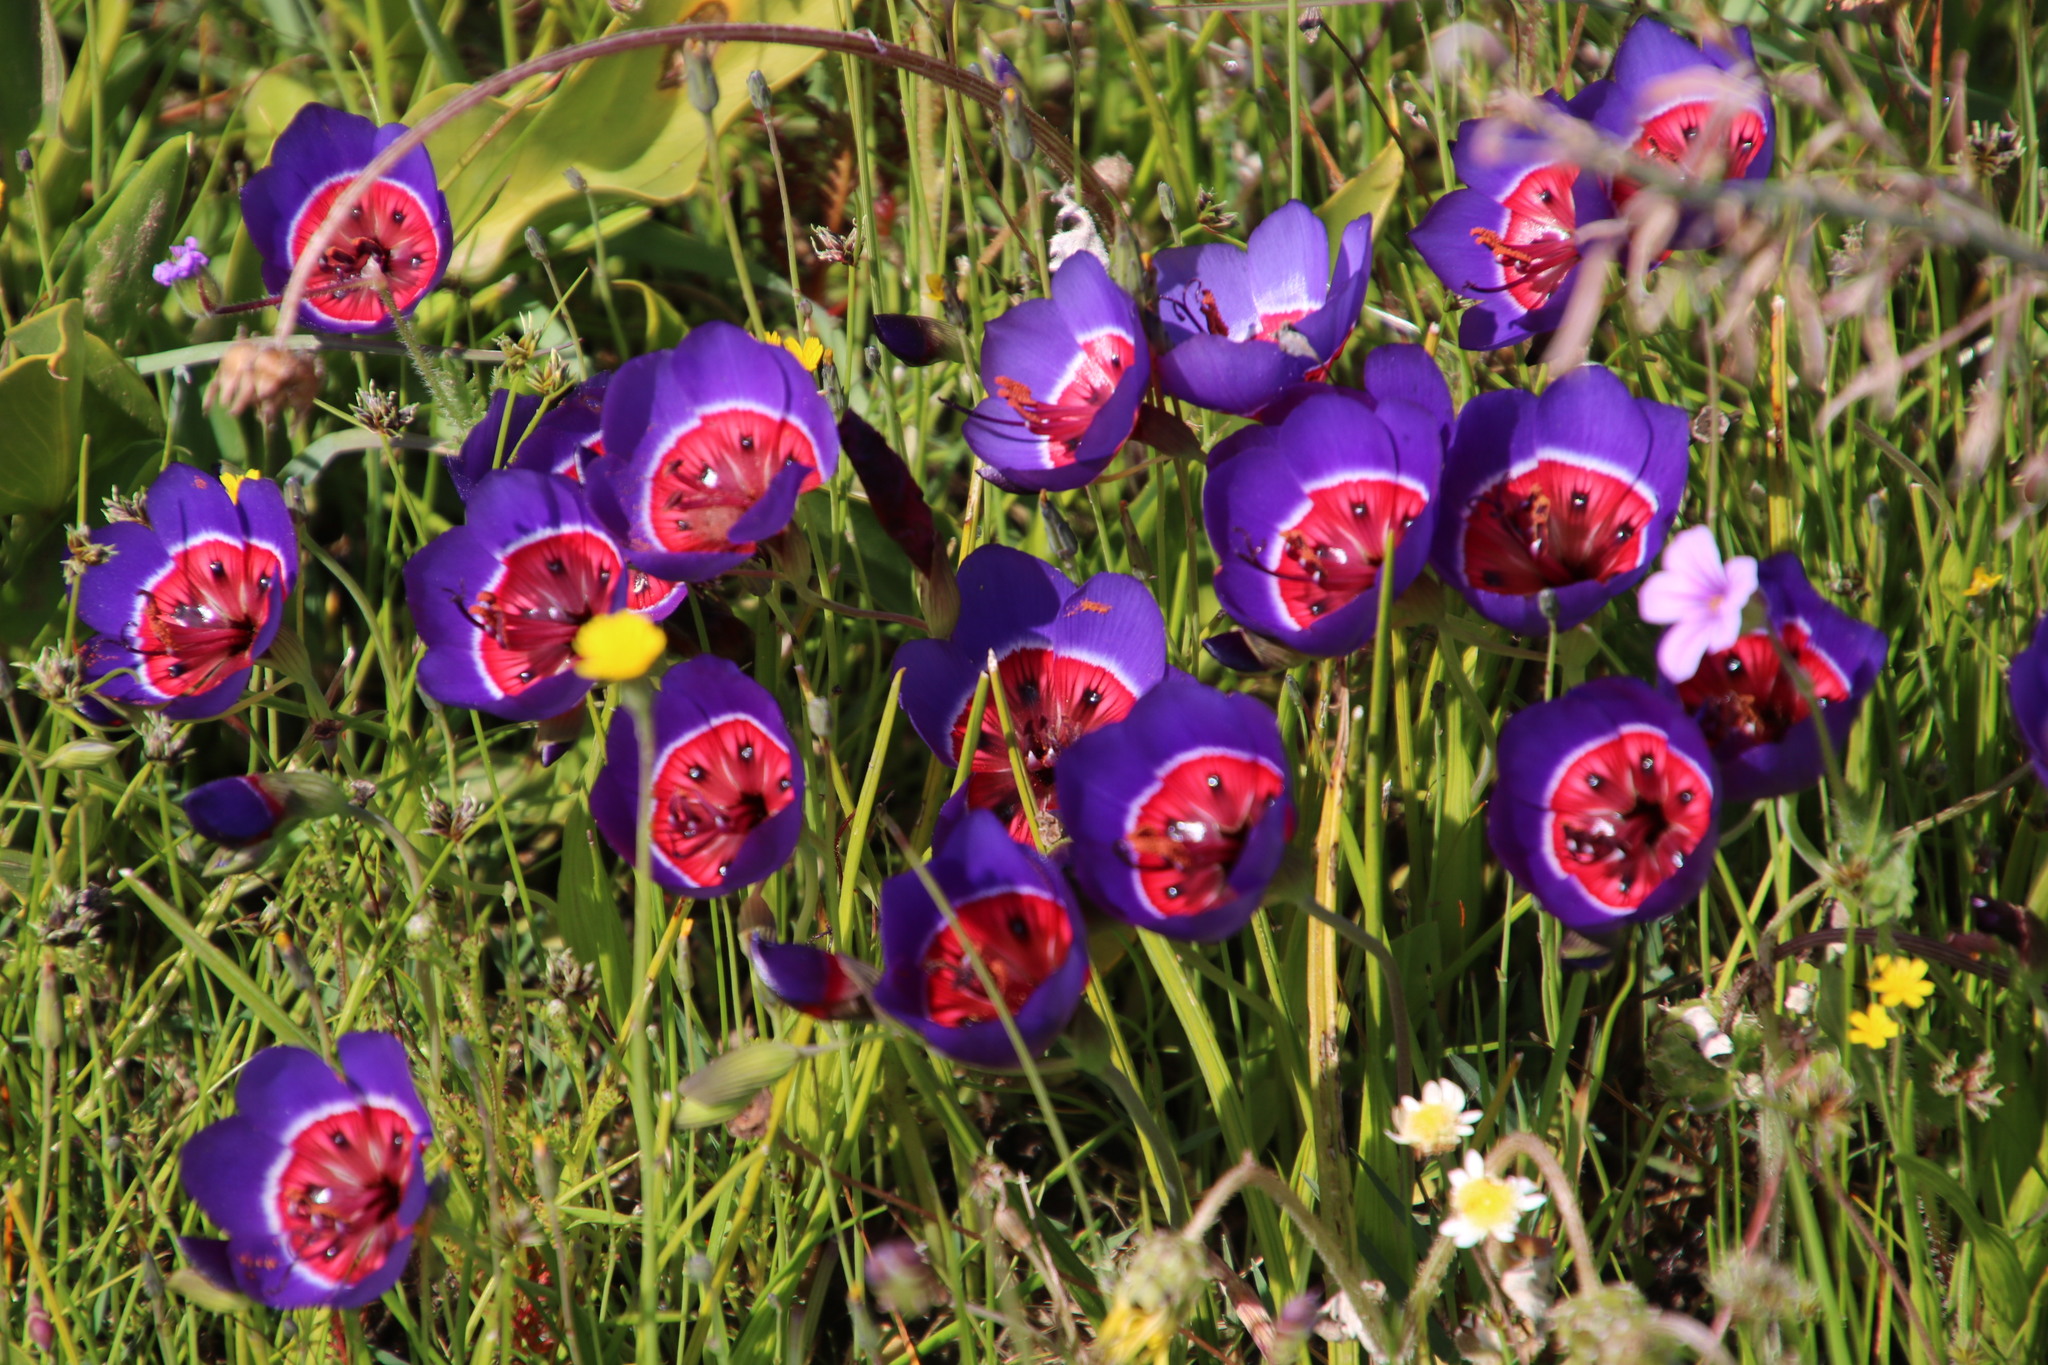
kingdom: Plantae
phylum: Tracheophyta
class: Liliopsida
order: Asparagales
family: Iridaceae
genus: Geissorhiza
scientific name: Geissorhiza radians
